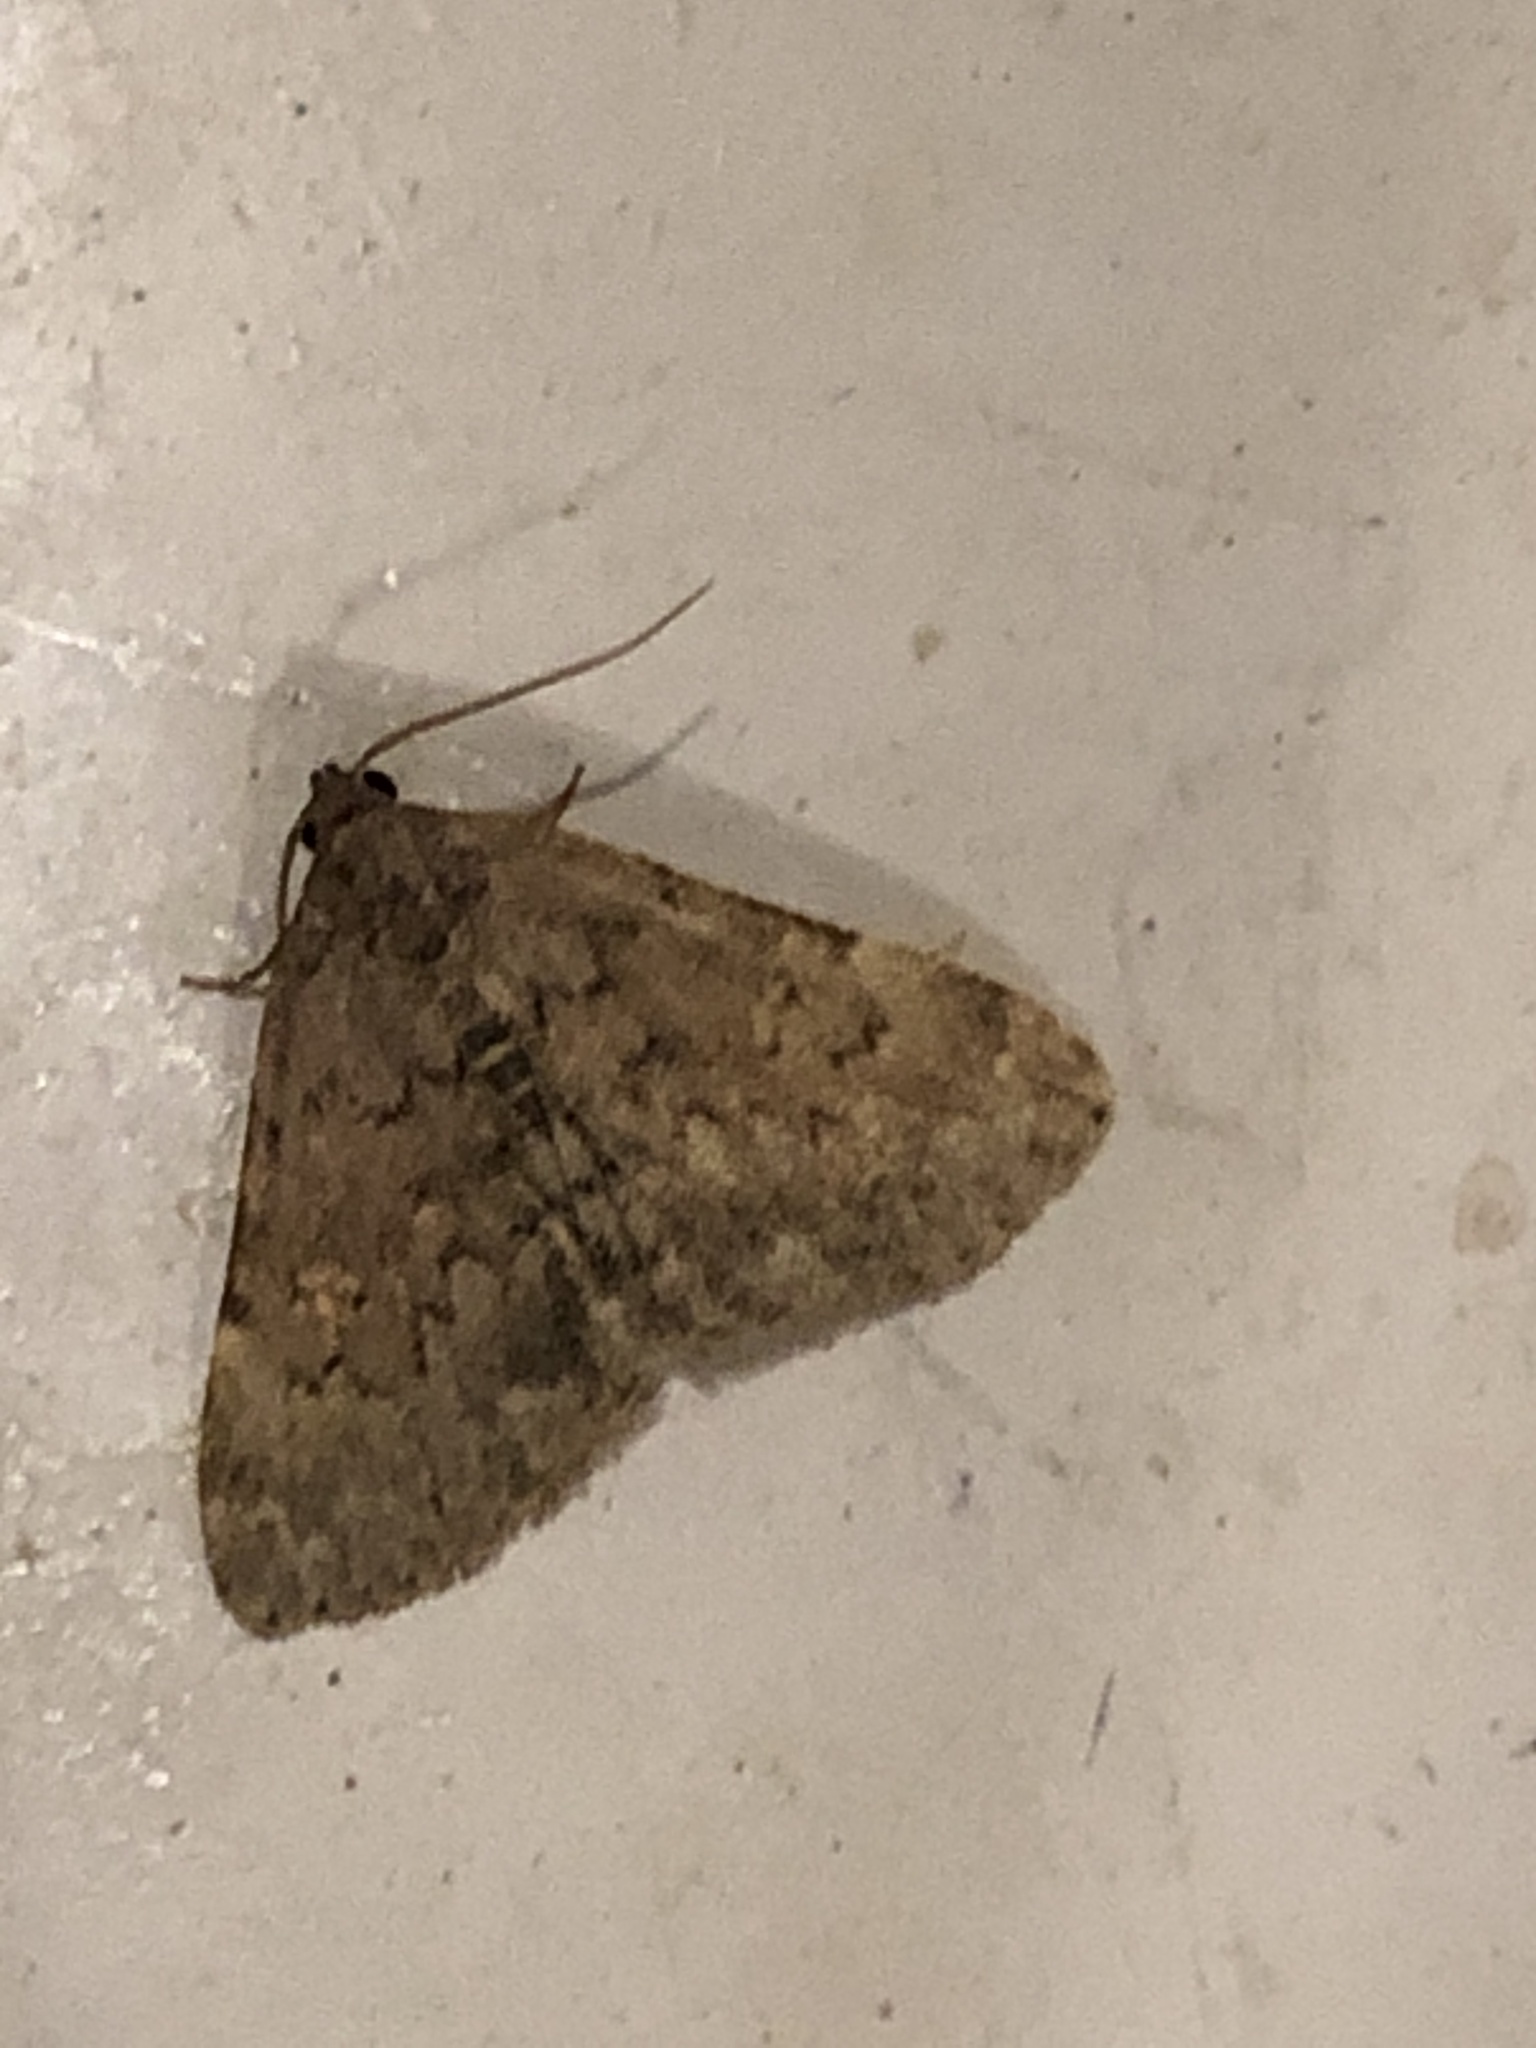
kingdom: Animalia
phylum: Arthropoda
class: Insecta
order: Lepidoptera
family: Erebidae
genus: Idia
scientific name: Idia aemula
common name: Common idia moth
